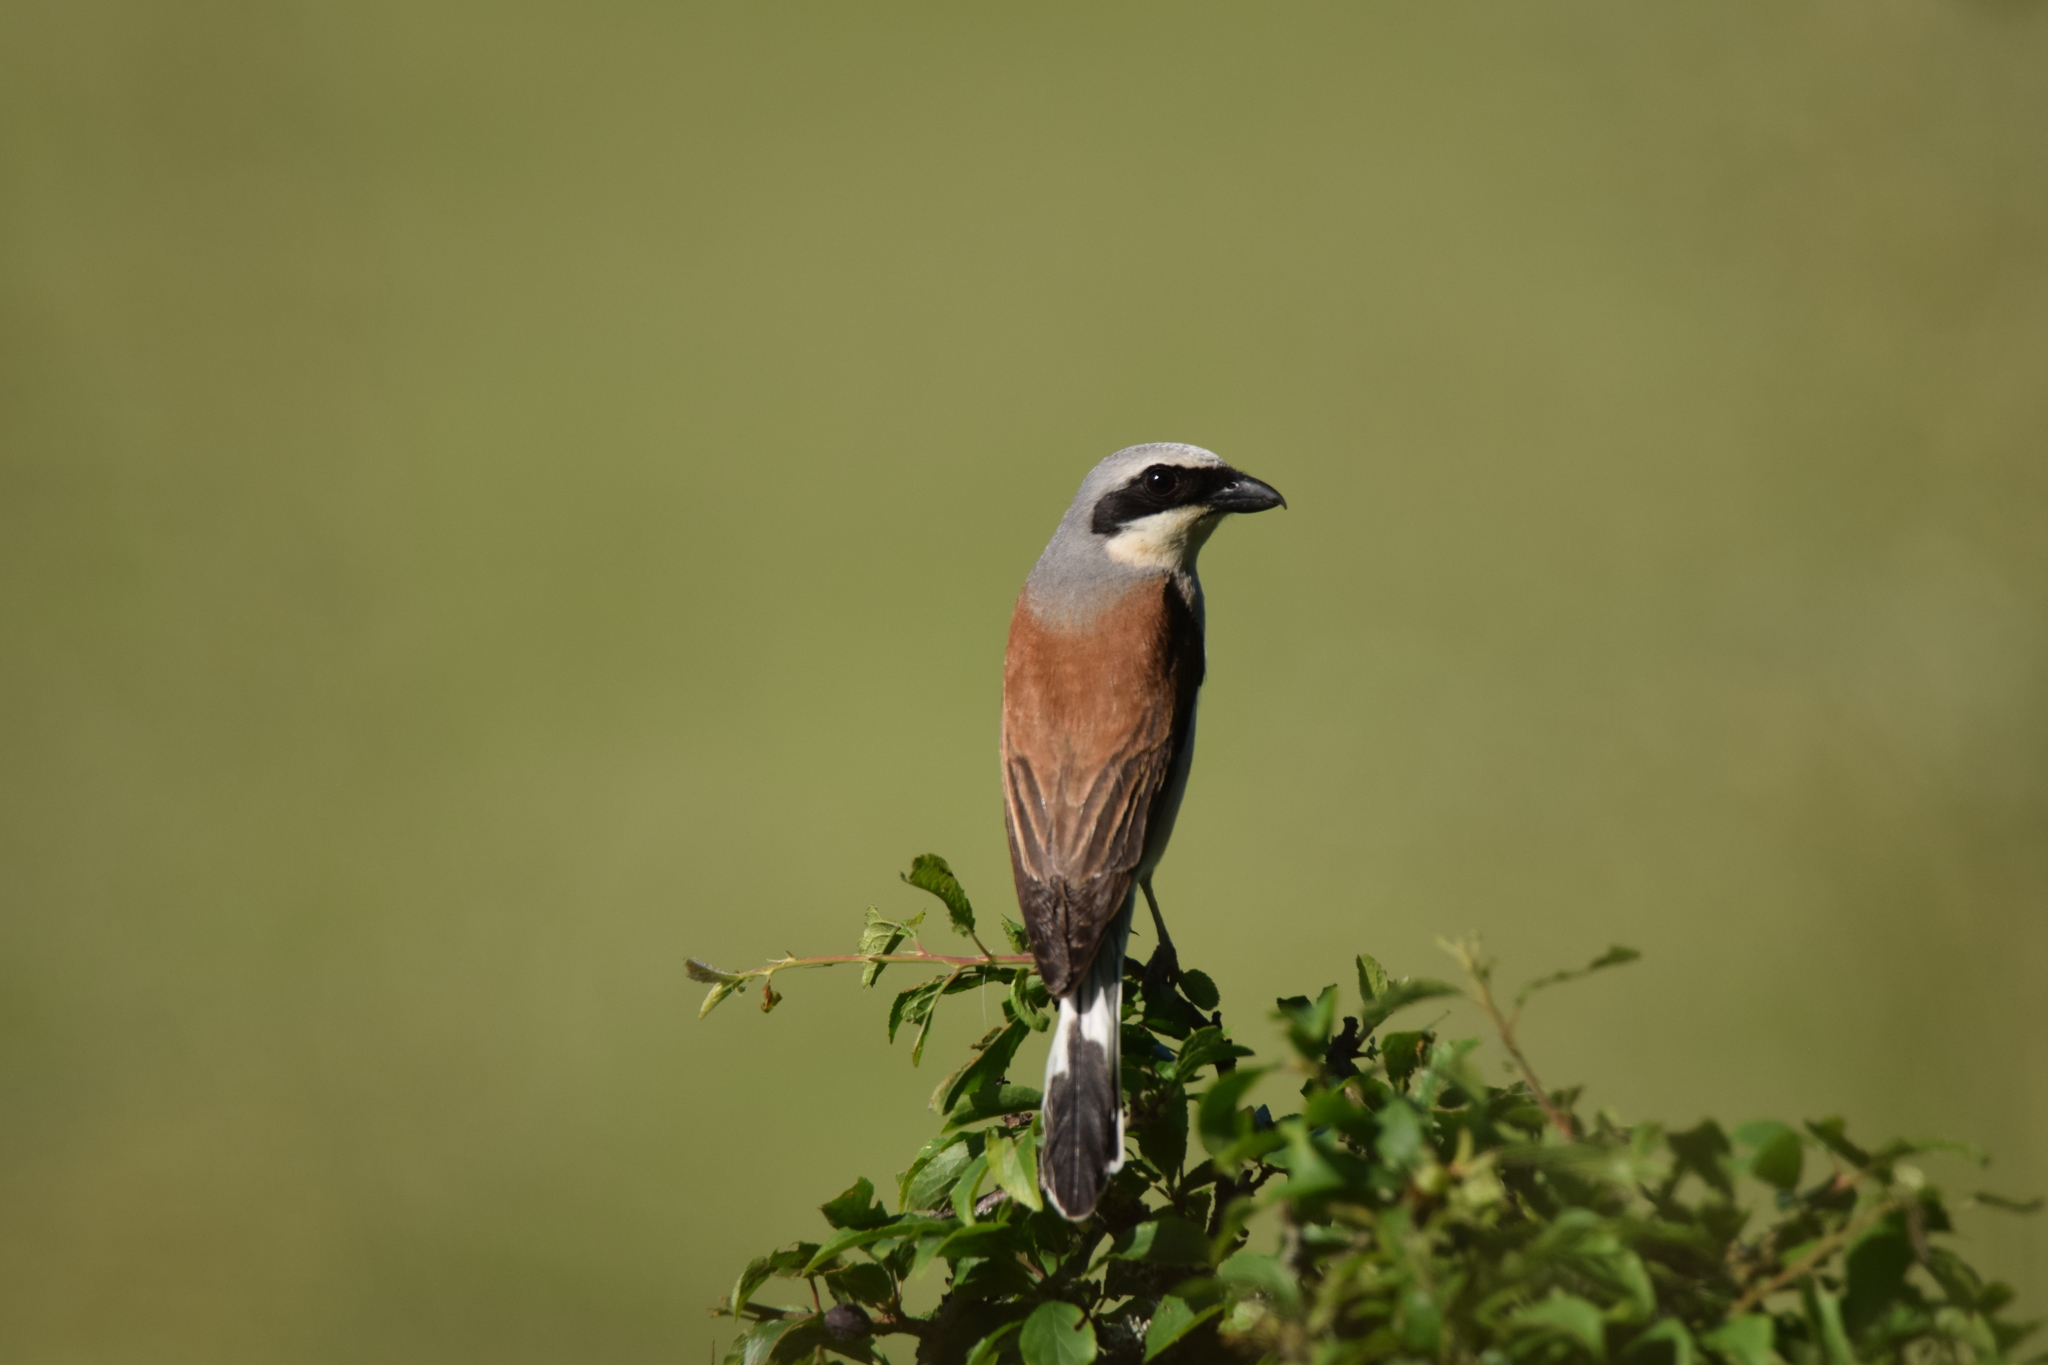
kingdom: Animalia
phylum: Chordata
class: Aves
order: Passeriformes
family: Laniidae
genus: Lanius
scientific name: Lanius collurio
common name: Red-backed shrike
